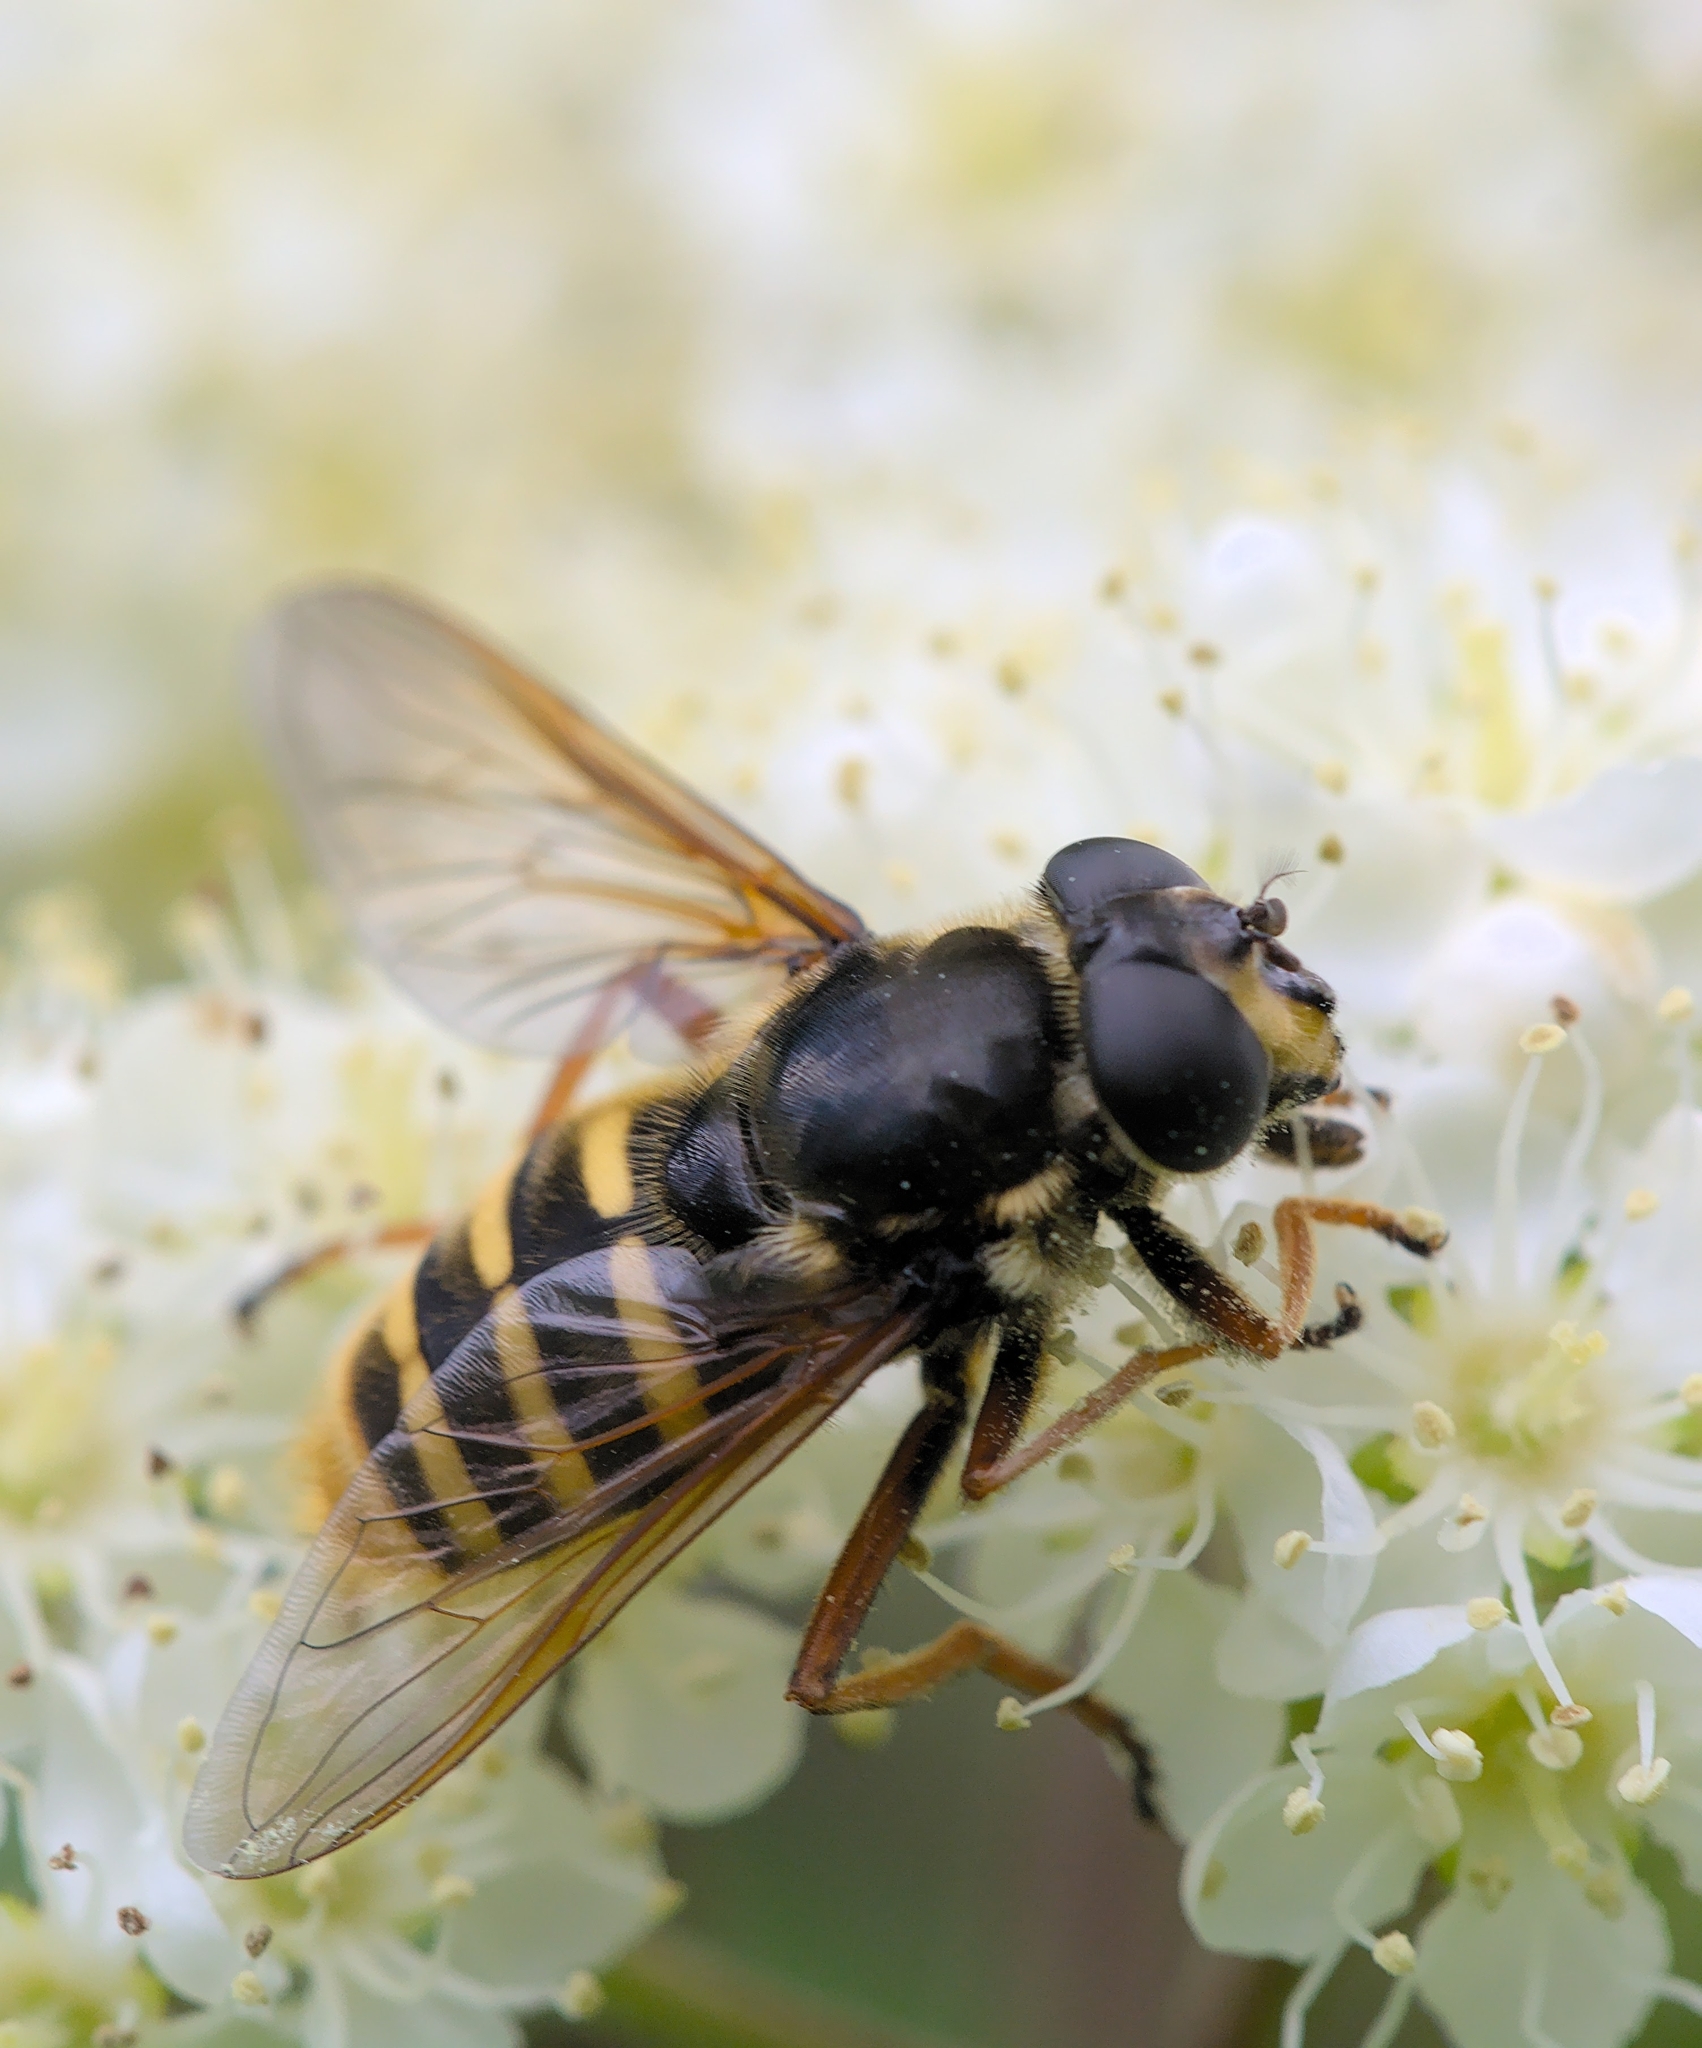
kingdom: Animalia
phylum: Arthropoda
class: Insecta
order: Diptera
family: Syrphidae
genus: Sericomyia
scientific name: Sericomyia silentis
